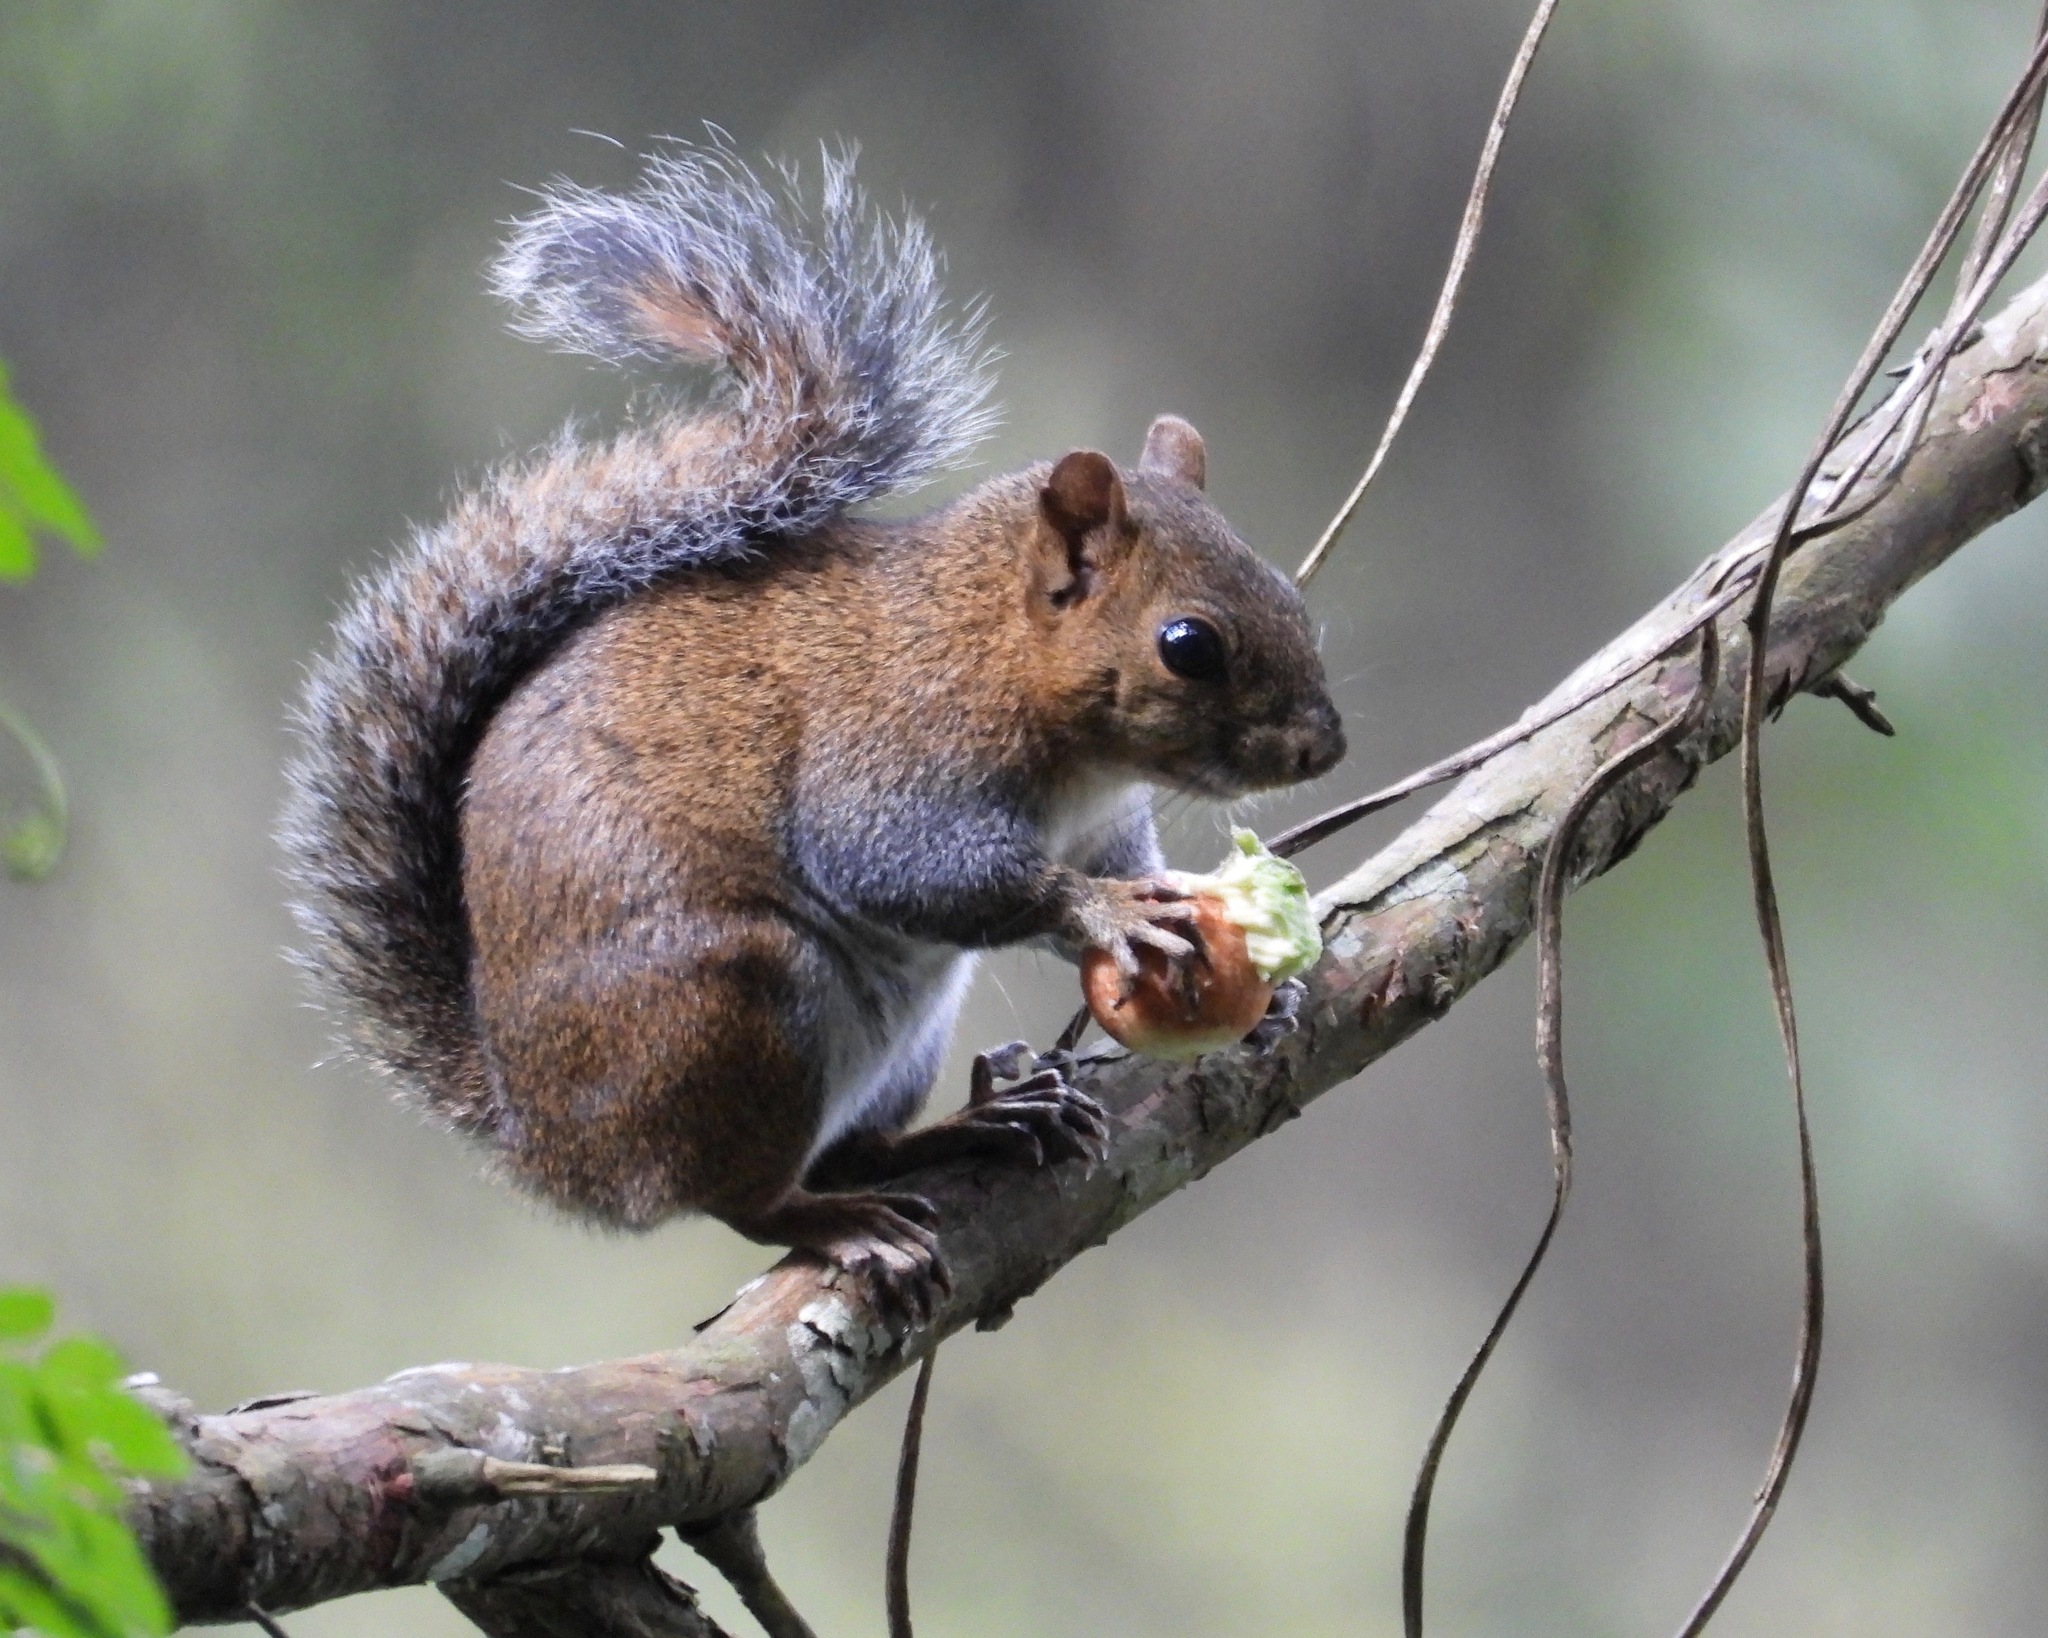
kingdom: Animalia
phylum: Chordata
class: Mammalia
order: Rodentia
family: Sciuridae
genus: Sciurus
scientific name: Sciurus deppei
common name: Deppe's squirrel
